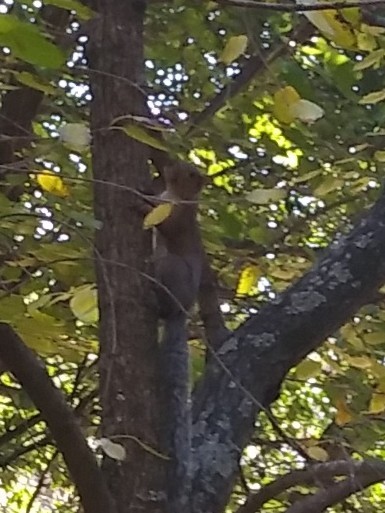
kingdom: Animalia
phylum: Chordata
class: Mammalia
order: Rodentia
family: Sciuridae
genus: Sciurus
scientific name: Sciurus carolinensis
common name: Eastern gray squirrel
